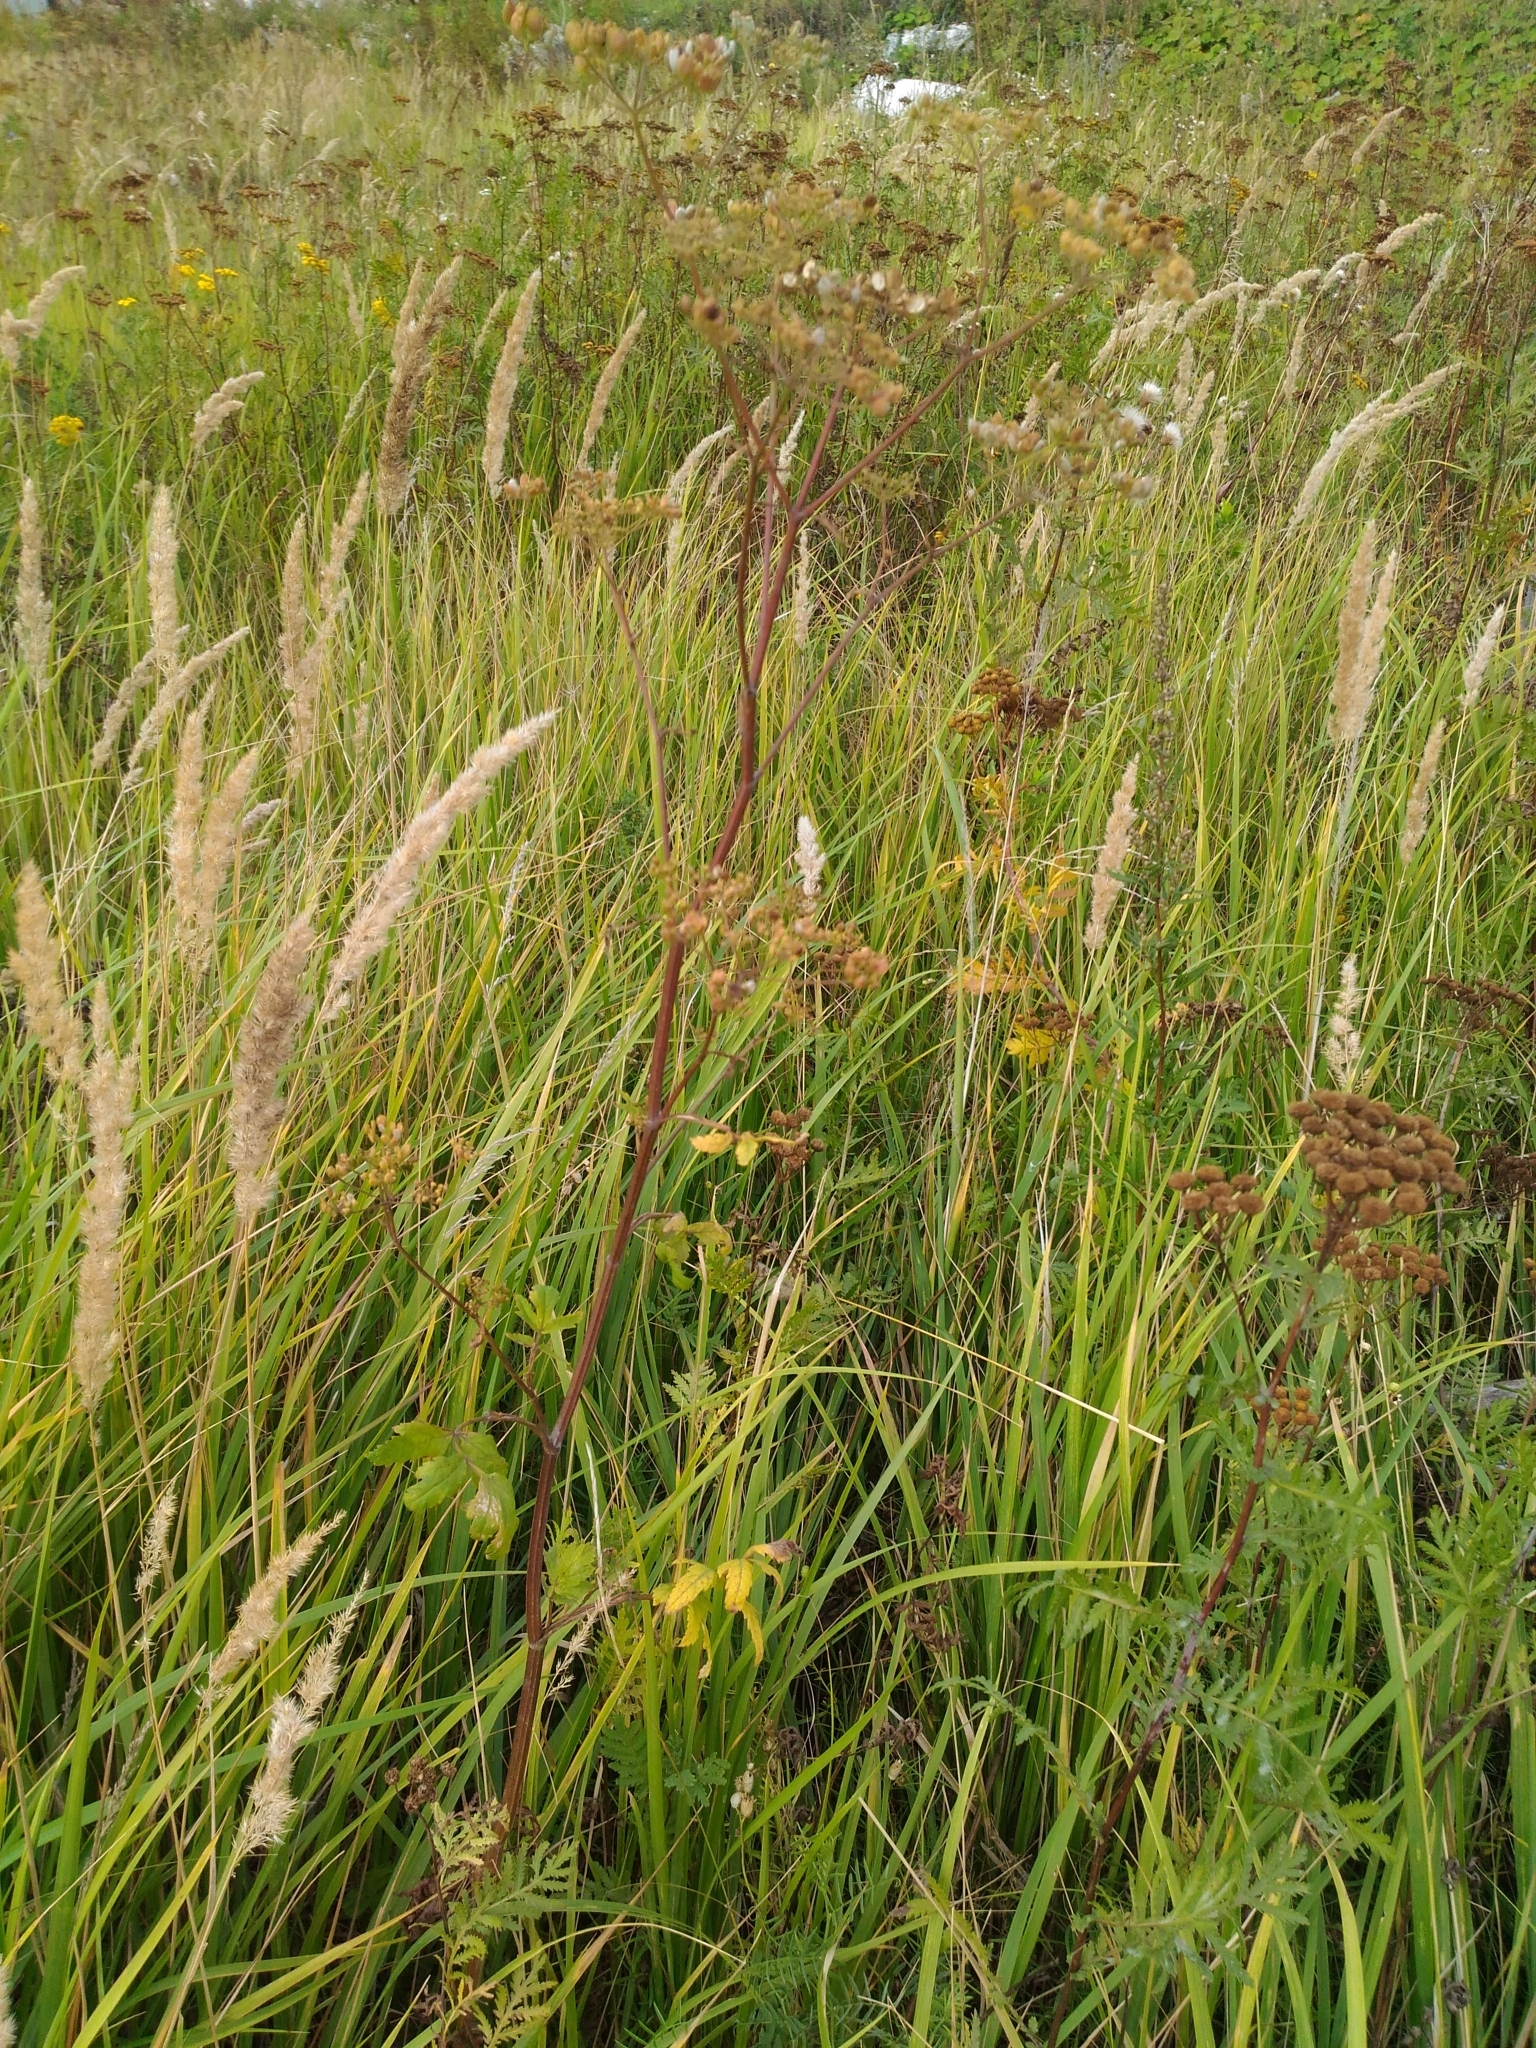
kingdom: Plantae
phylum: Tracheophyta
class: Magnoliopsida
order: Apiales
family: Apiaceae
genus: Pastinaca
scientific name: Pastinaca sativa
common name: Wild parsnip
